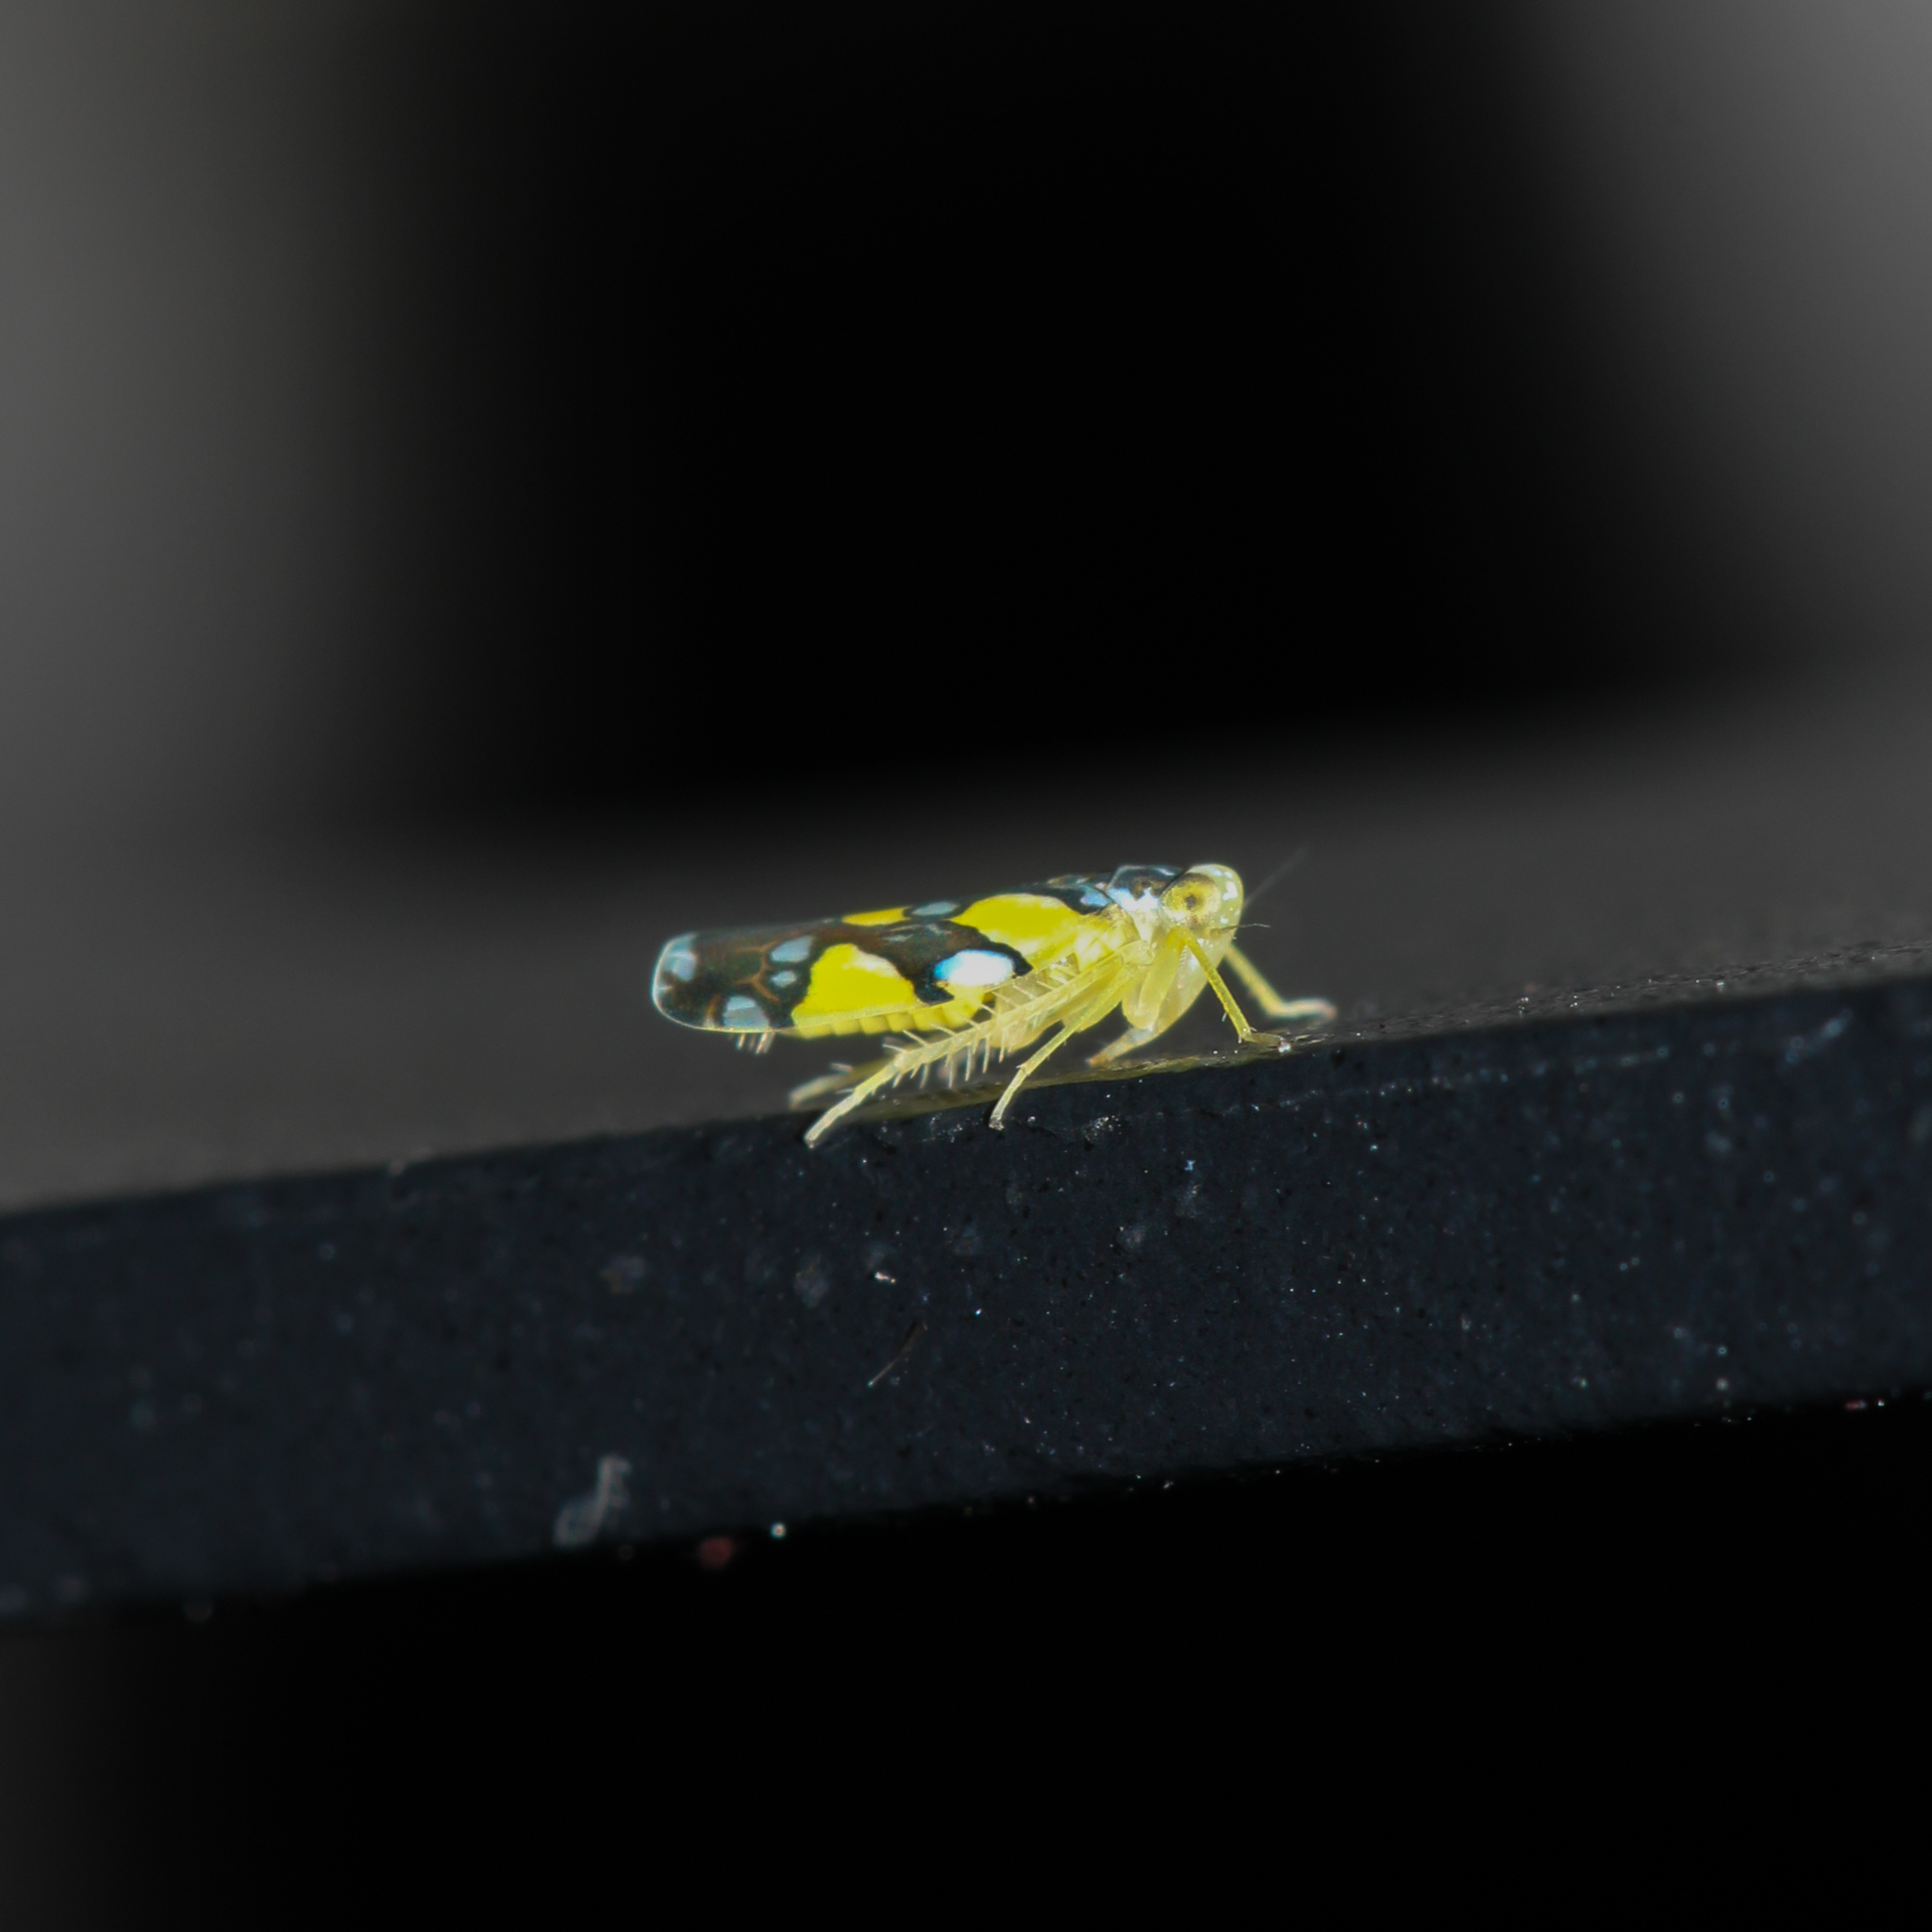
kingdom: Animalia
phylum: Arthropoda
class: Insecta
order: Hemiptera
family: Cicadellidae
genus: Protalebrella
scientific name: Protalebrella brasiliensis
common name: Brasilian leafhopper
